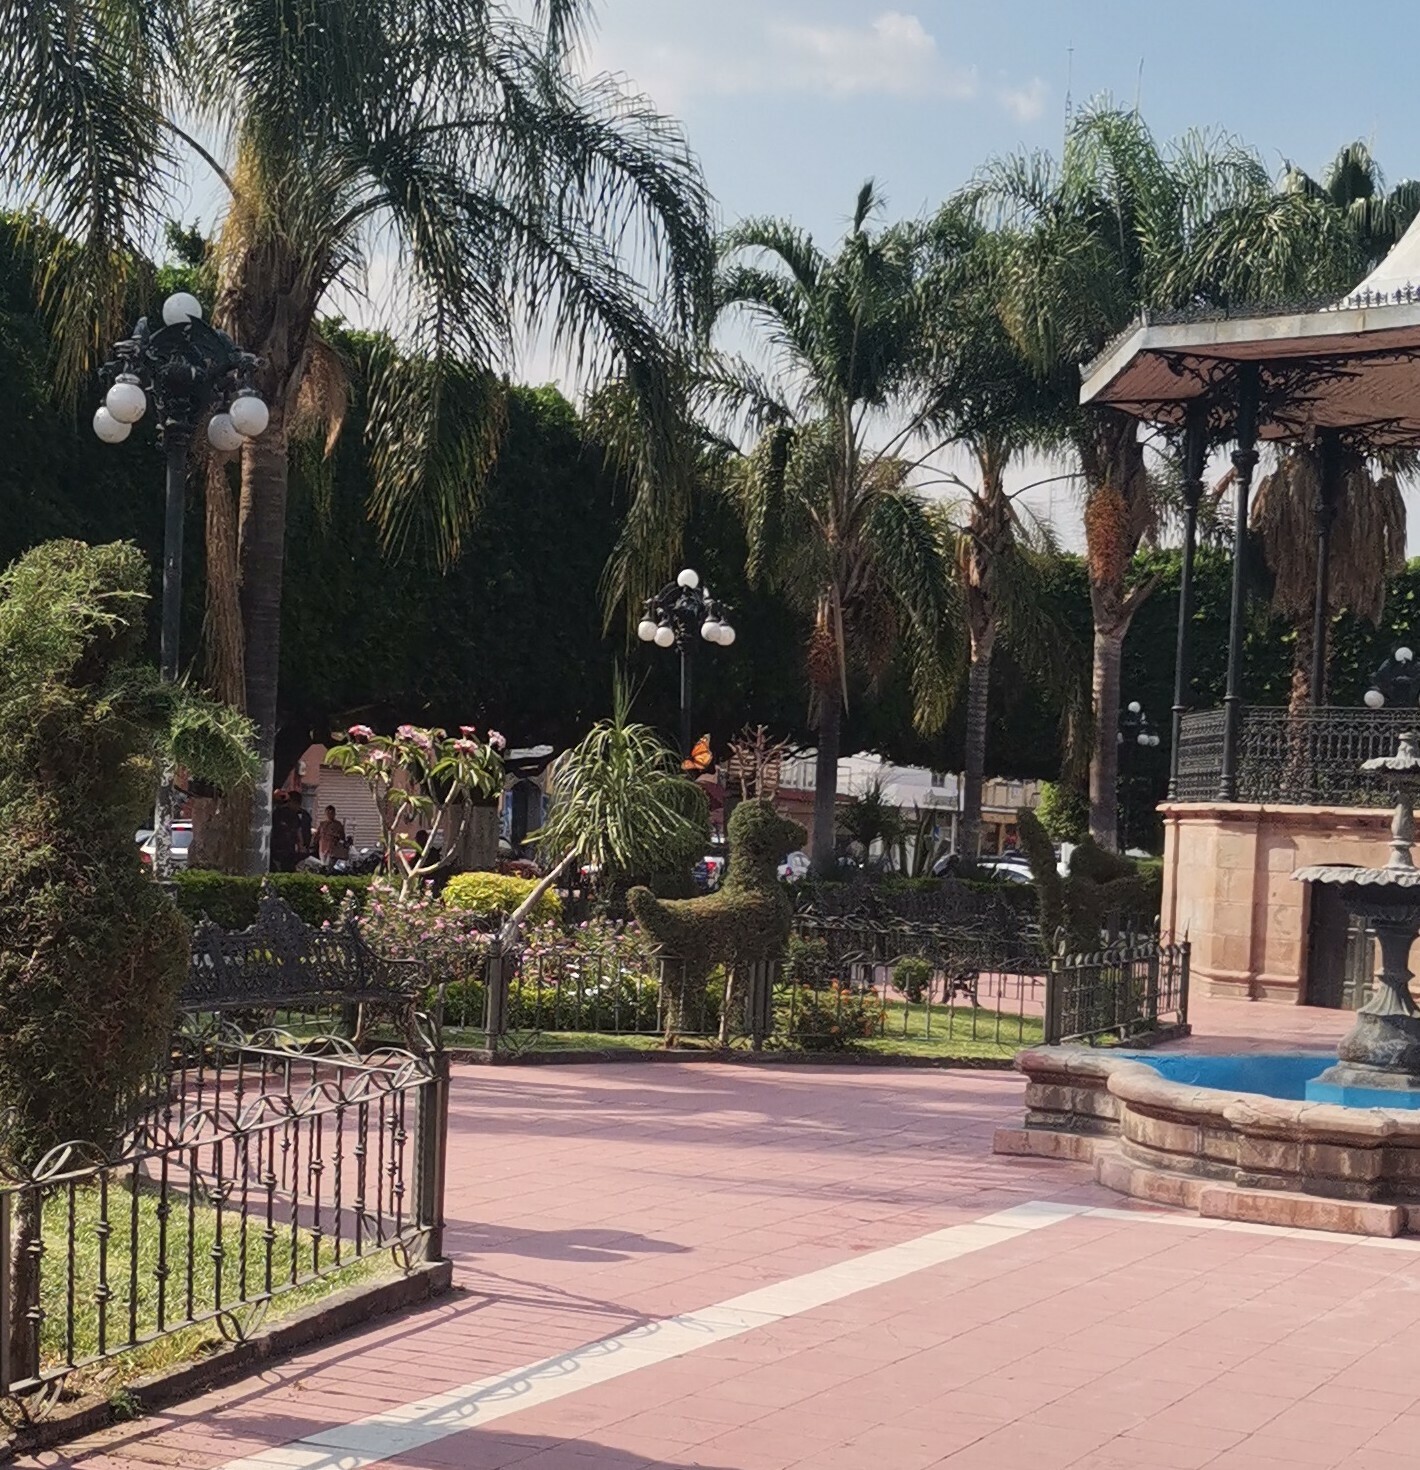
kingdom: Animalia
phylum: Arthropoda
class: Insecta
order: Lepidoptera
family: Nymphalidae
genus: Danaus
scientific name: Danaus plexippus
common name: Monarch
